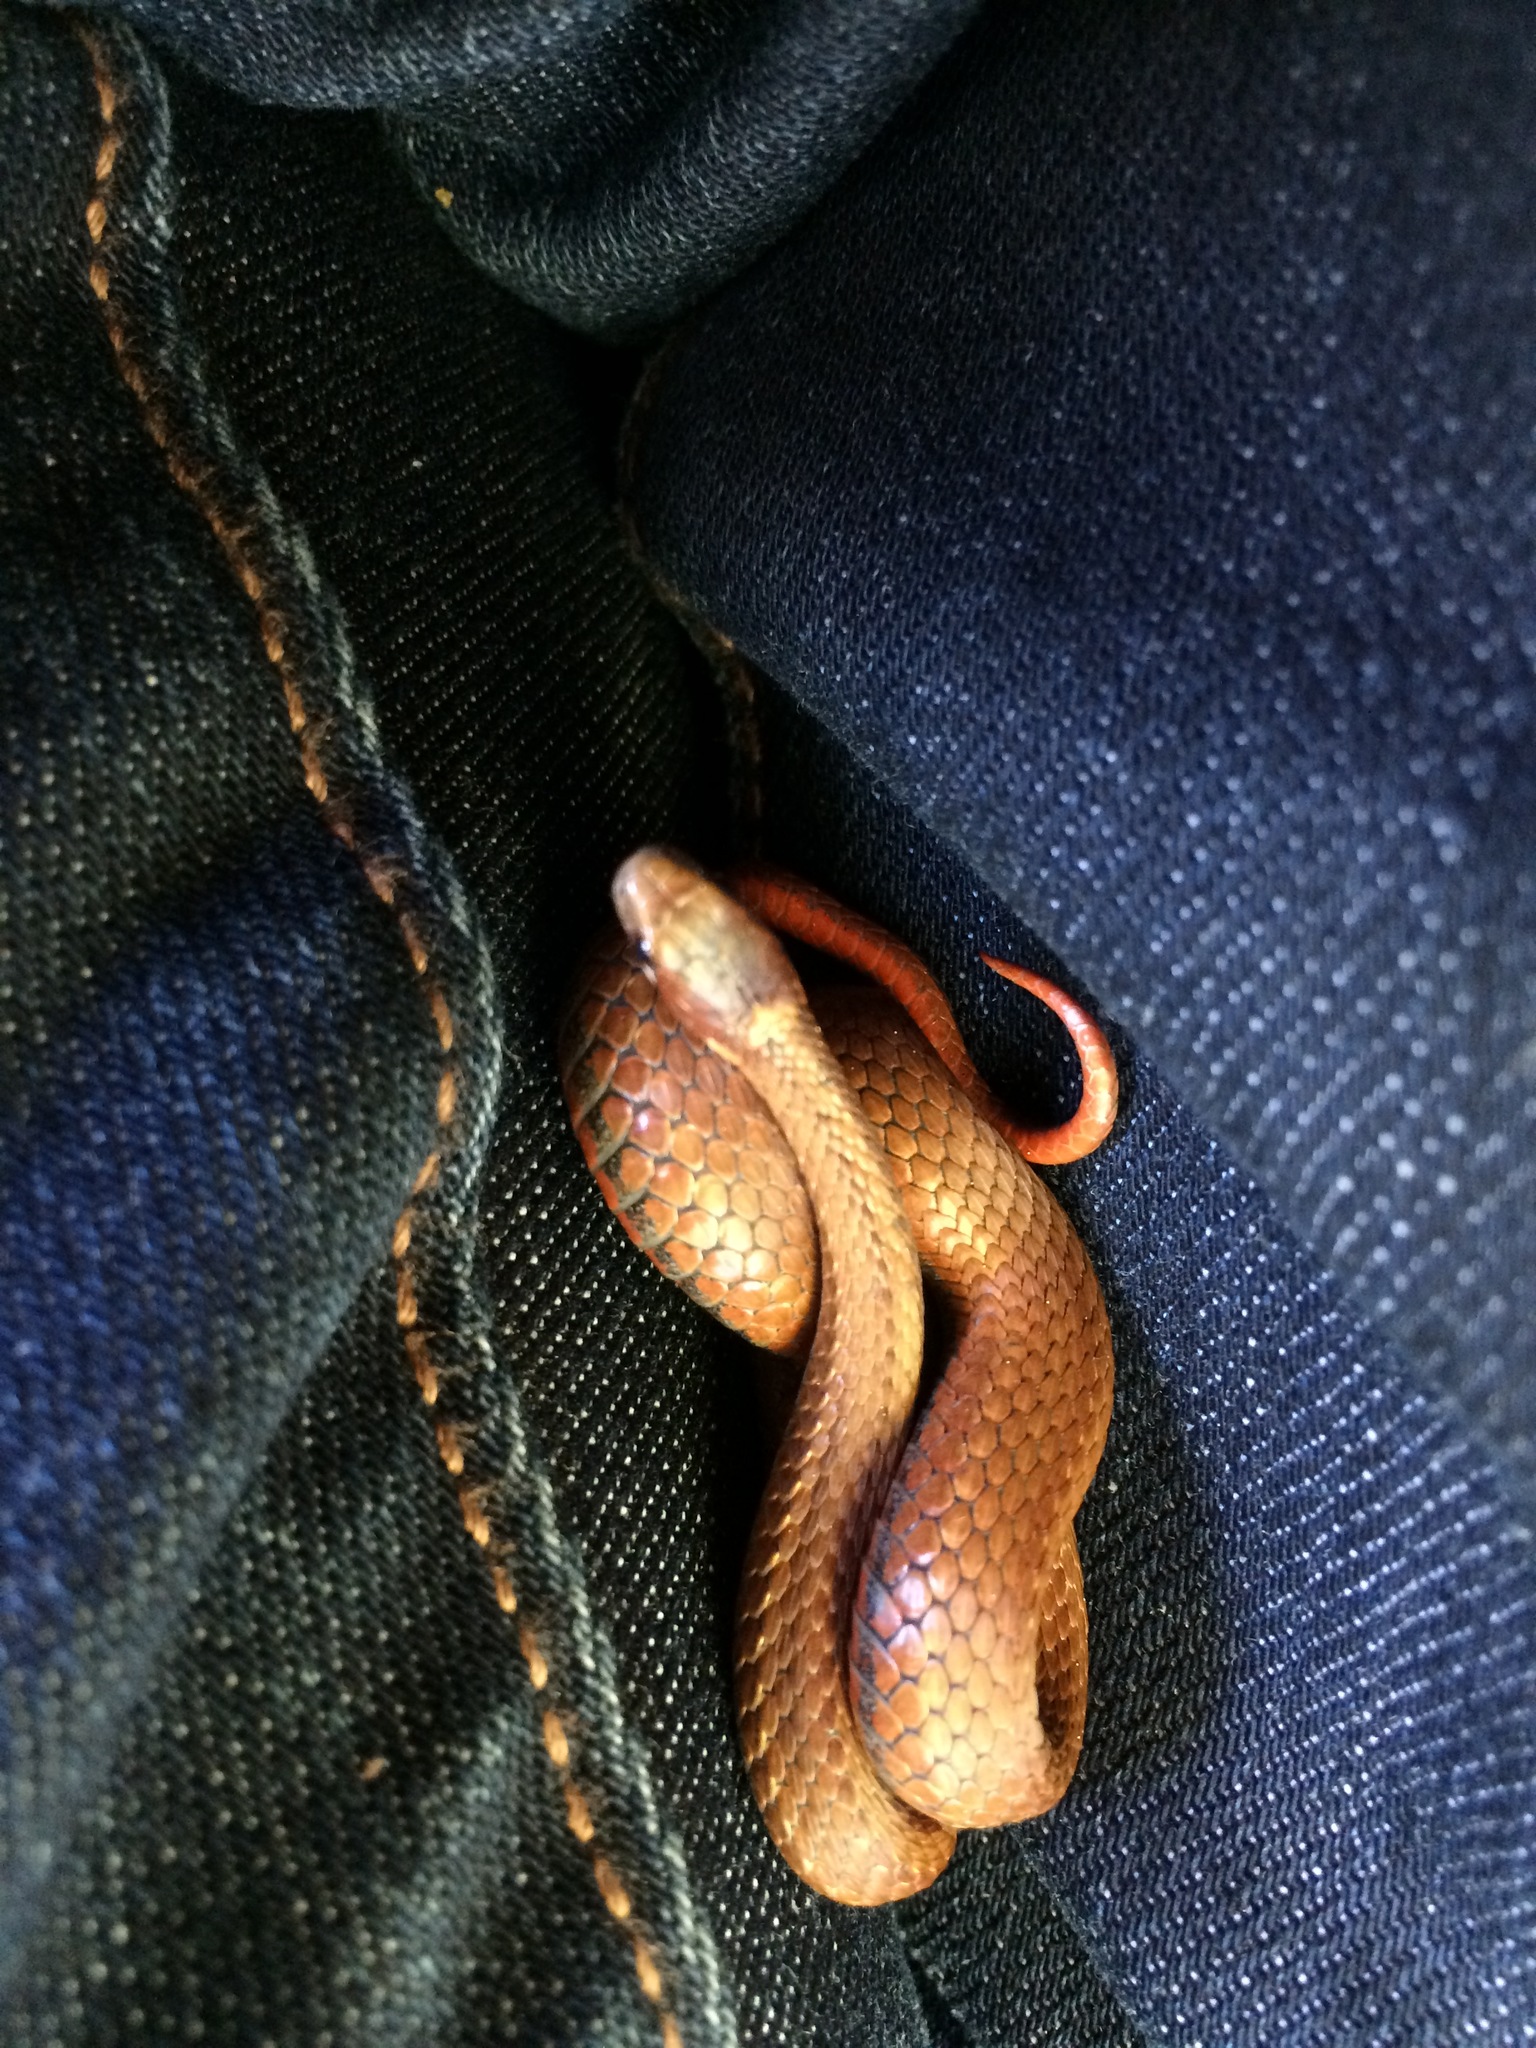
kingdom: Animalia
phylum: Chordata
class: Squamata
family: Colubridae
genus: Storeria
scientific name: Storeria occipitomaculata
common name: Redbelly snake
